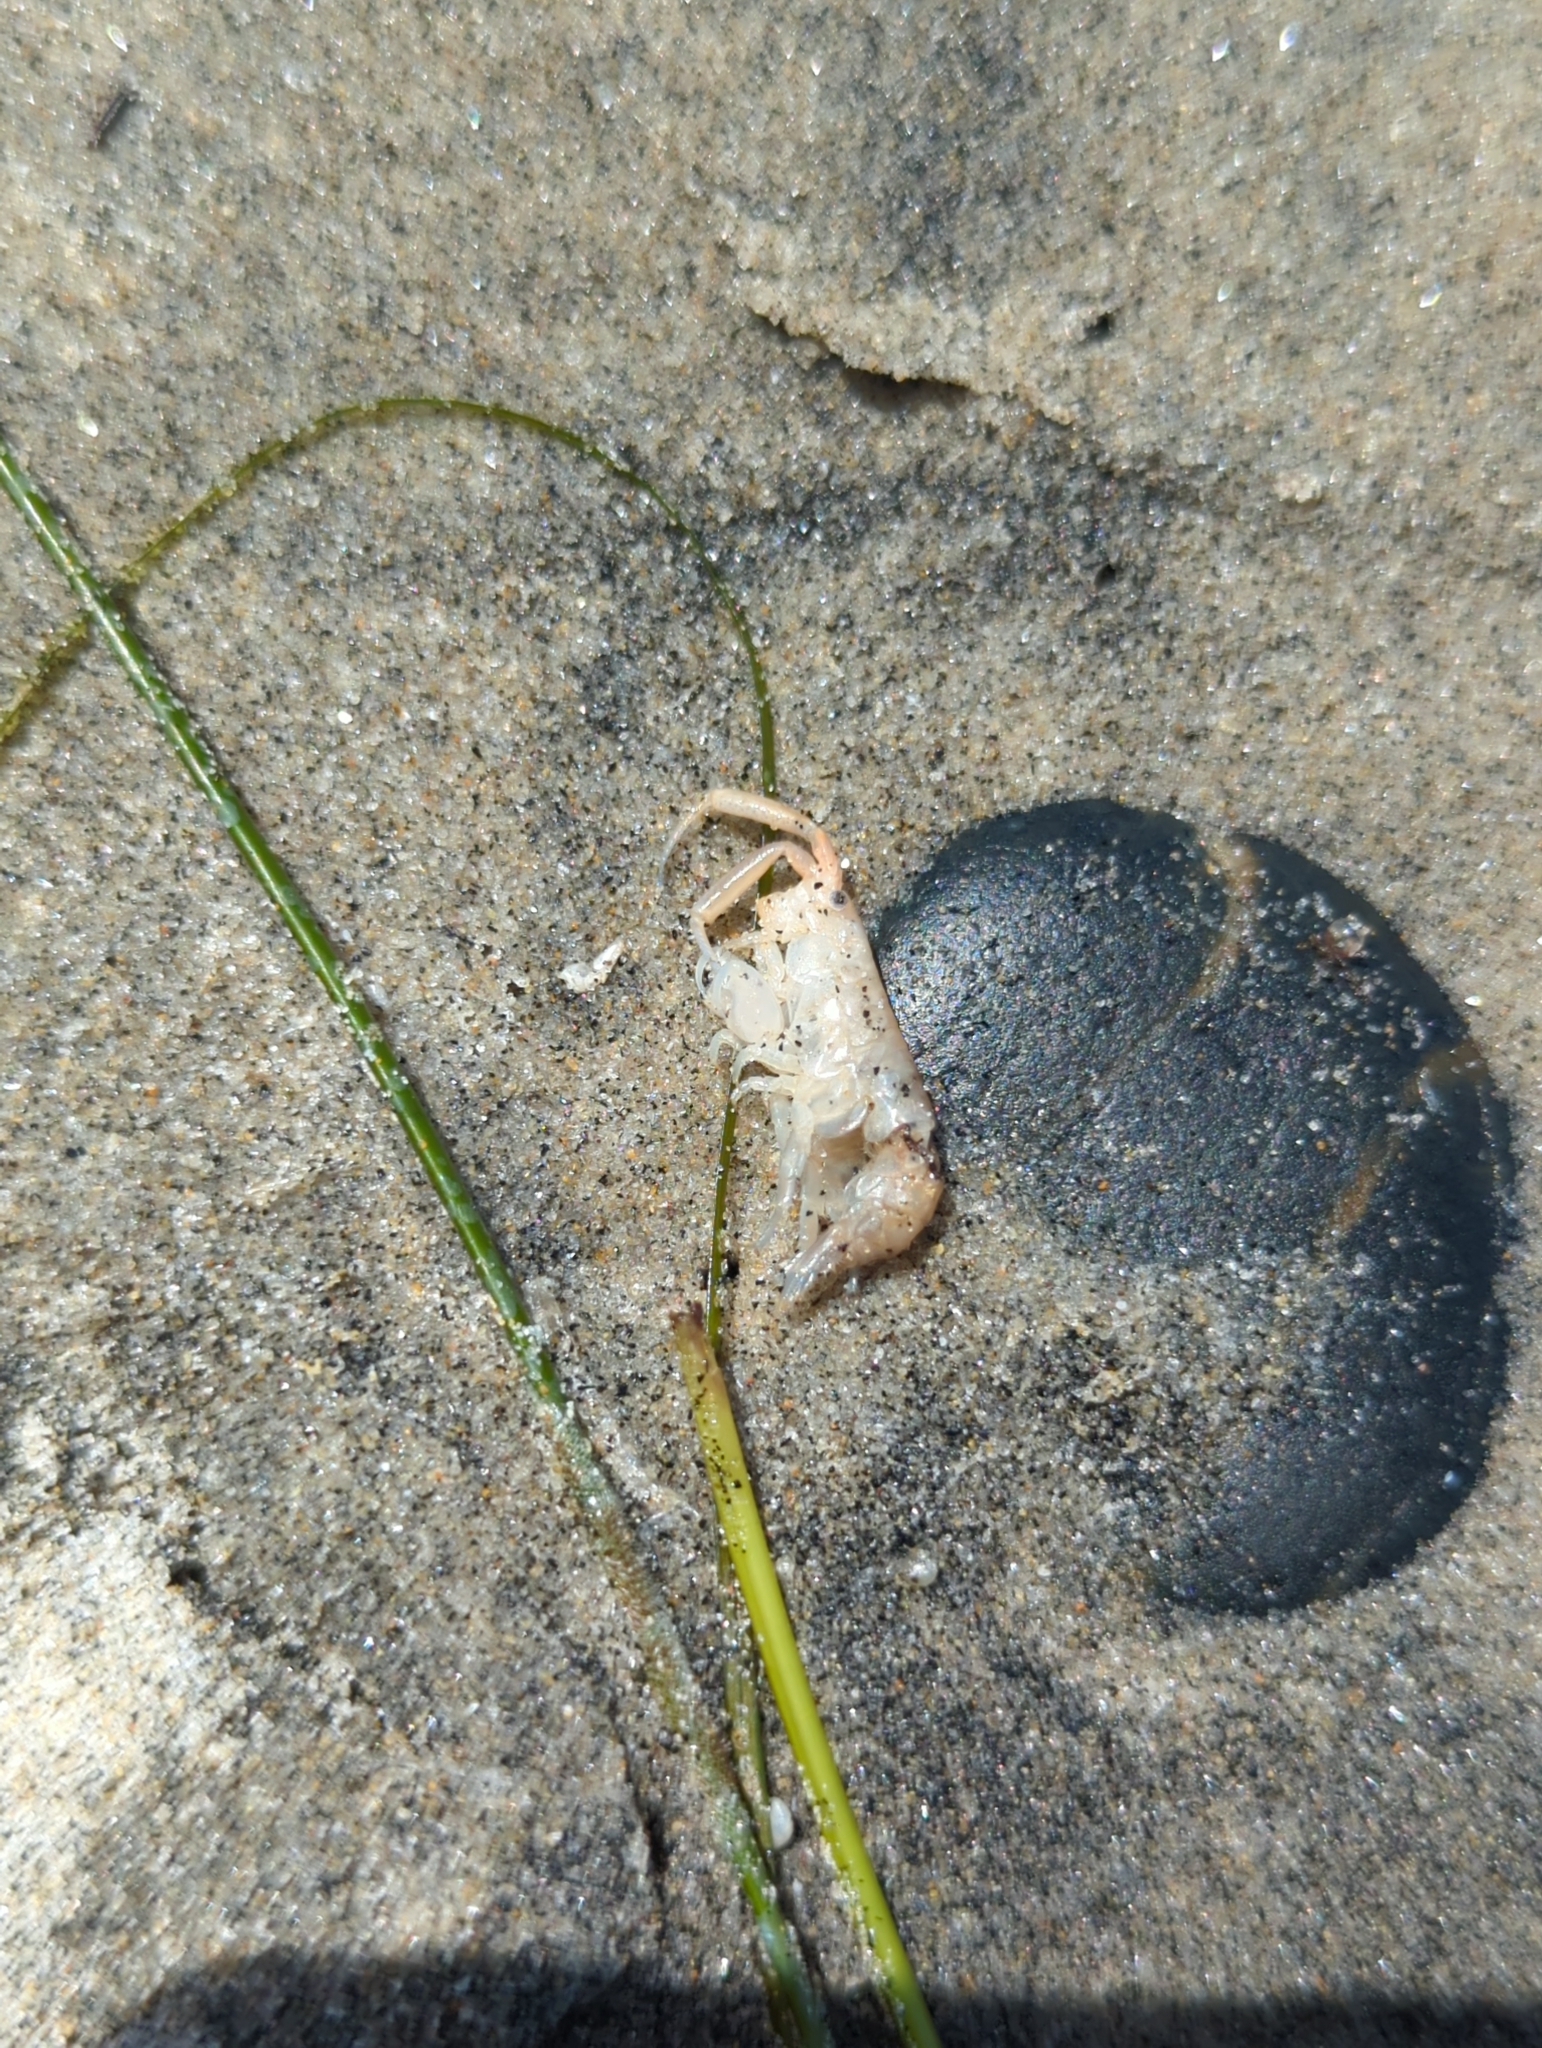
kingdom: Animalia
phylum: Arthropoda
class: Malacostraca
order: Amphipoda
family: Talitridae
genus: Megalorchestia
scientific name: Megalorchestia corniculata
